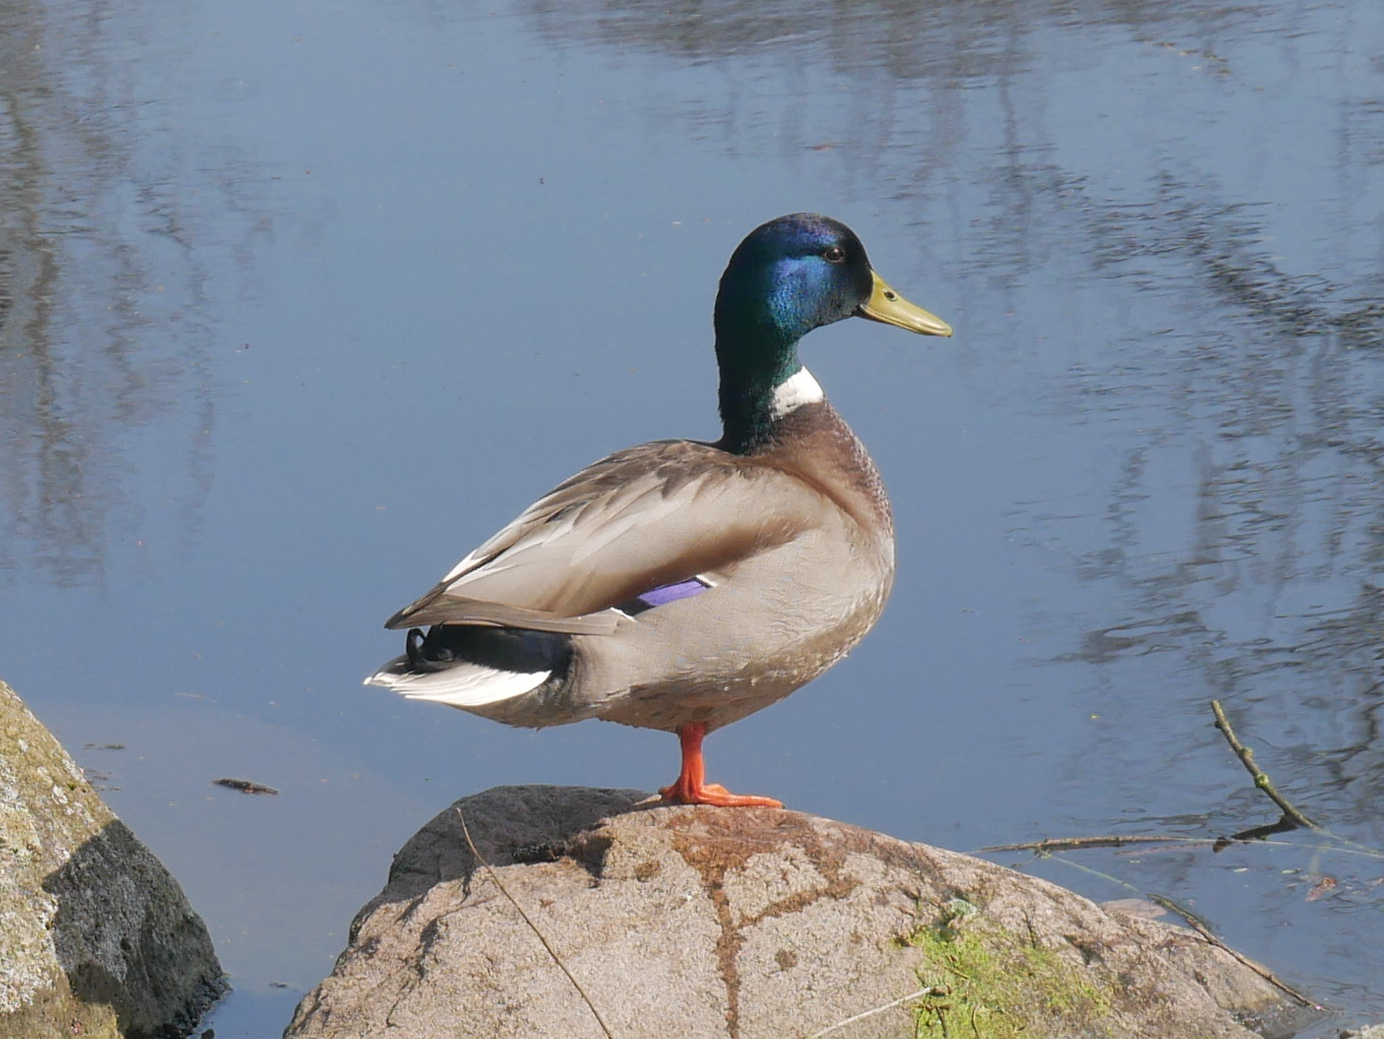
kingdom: Animalia
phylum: Chordata
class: Aves
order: Anseriformes
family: Anatidae
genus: Anas
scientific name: Anas platyrhynchos
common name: Mallard
